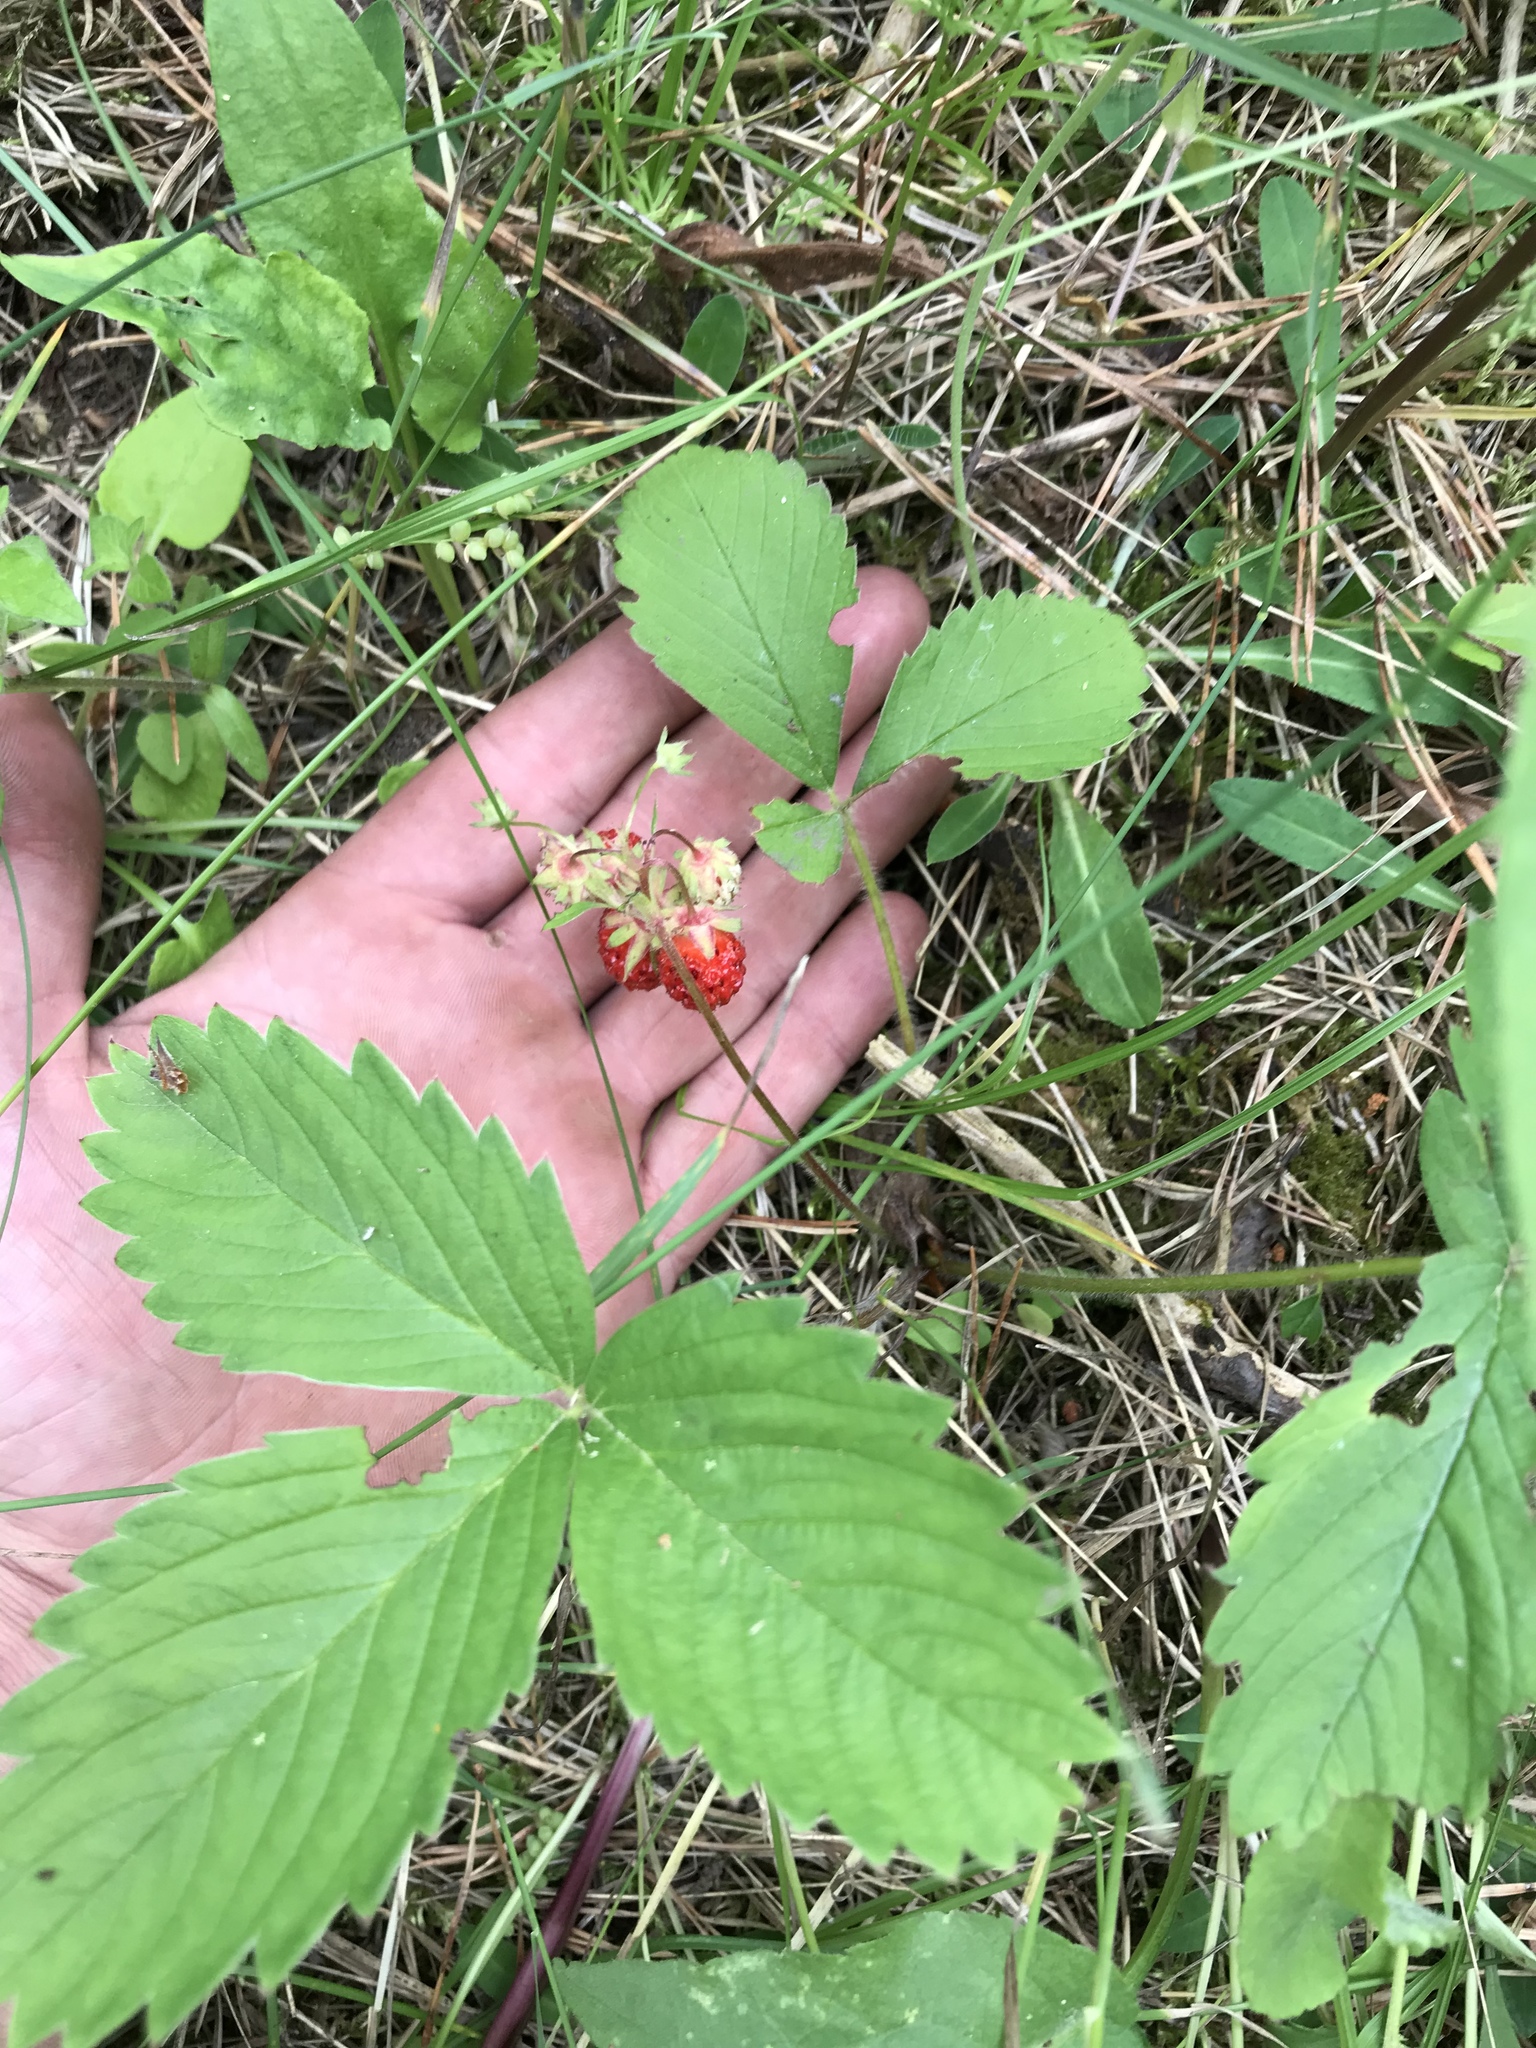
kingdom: Plantae
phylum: Tracheophyta
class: Magnoliopsida
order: Rosales
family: Rosaceae
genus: Fragaria
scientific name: Fragaria virginiana
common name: Thickleaved wild strawberry
